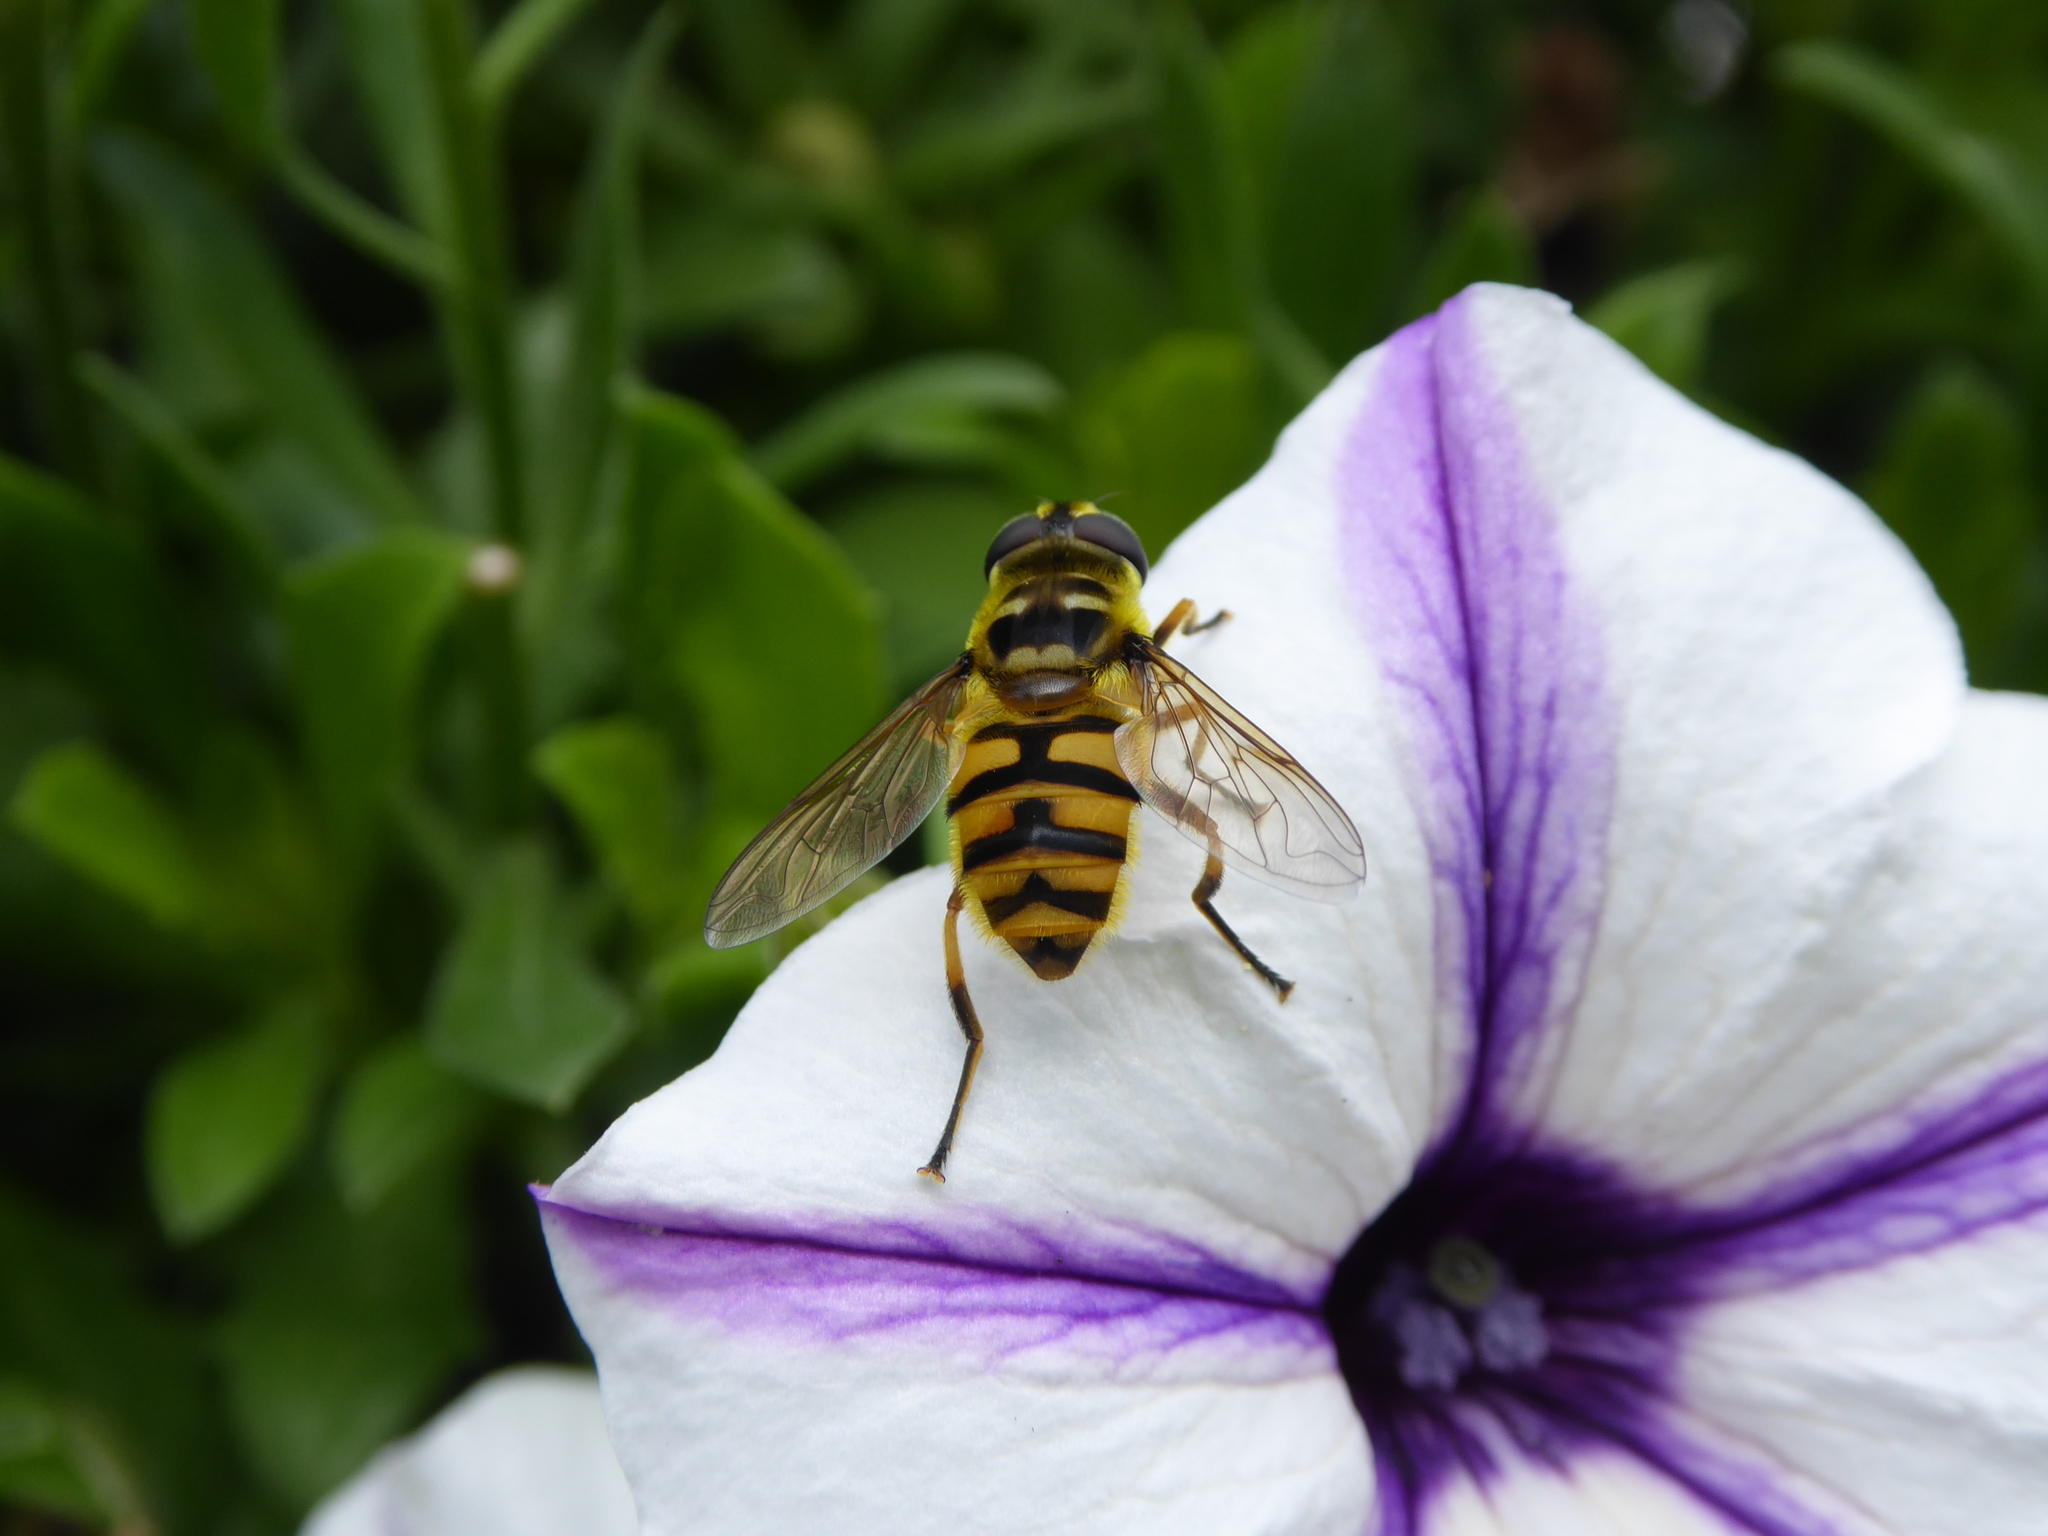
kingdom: Animalia
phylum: Arthropoda
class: Insecta
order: Diptera
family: Syrphidae
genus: Myathropa
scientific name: Myathropa florea
